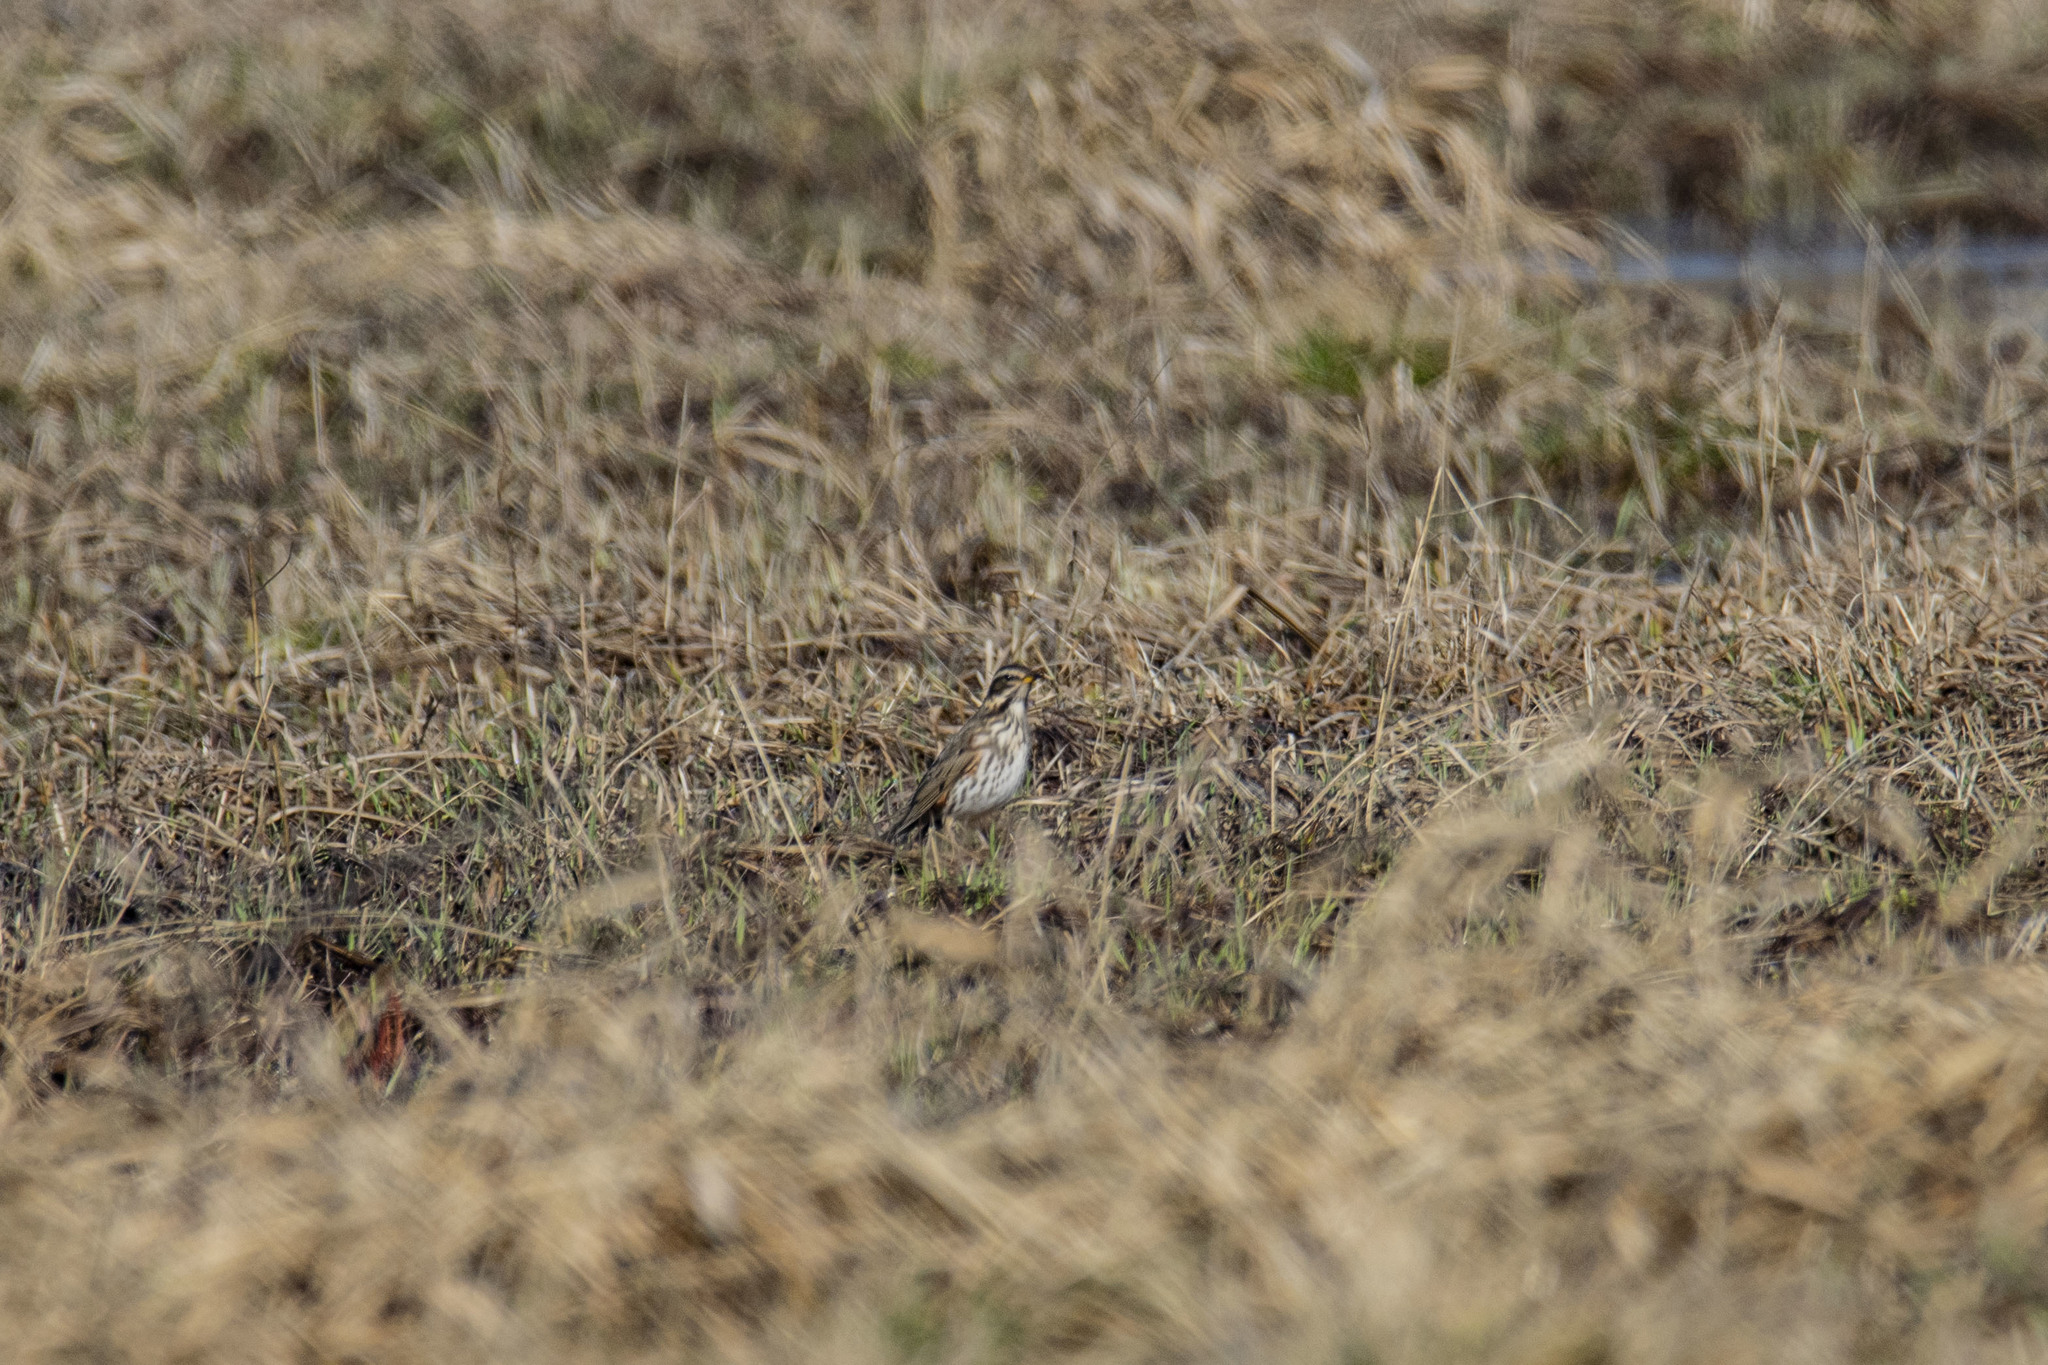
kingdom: Animalia
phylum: Chordata
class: Aves
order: Passeriformes
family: Turdidae
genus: Turdus
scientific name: Turdus iliacus
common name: Redwing
